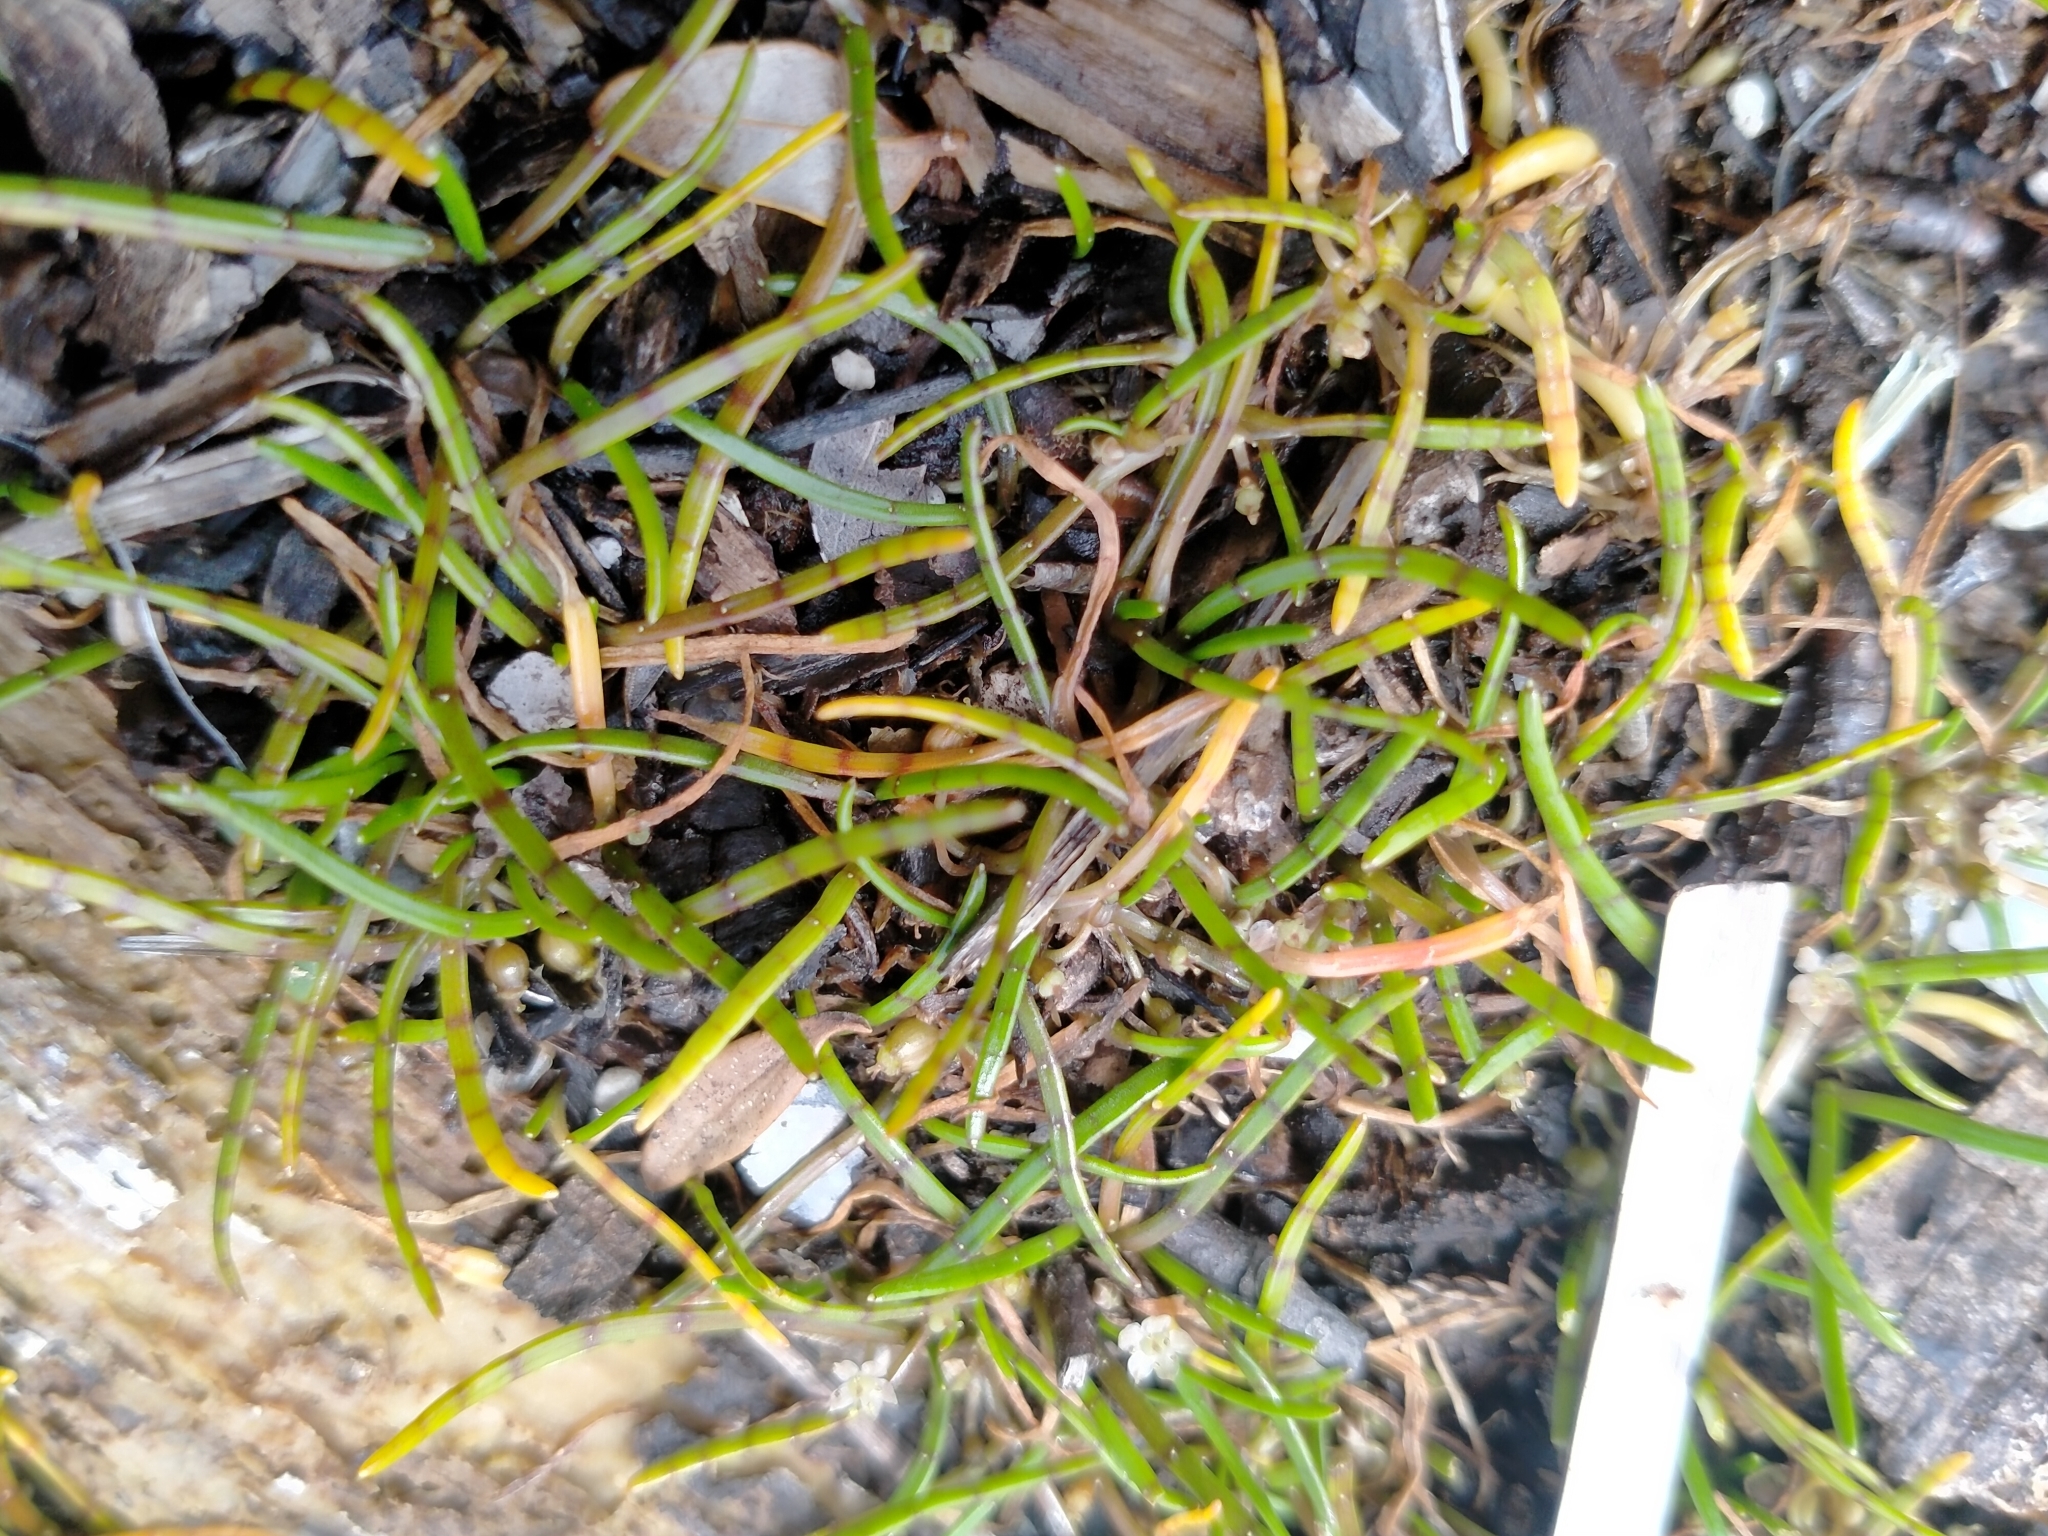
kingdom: Plantae
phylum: Tracheophyta
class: Magnoliopsida
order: Apiales
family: Apiaceae
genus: Lilaeopsis
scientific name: Lilaeopsis novae-zelandiae
